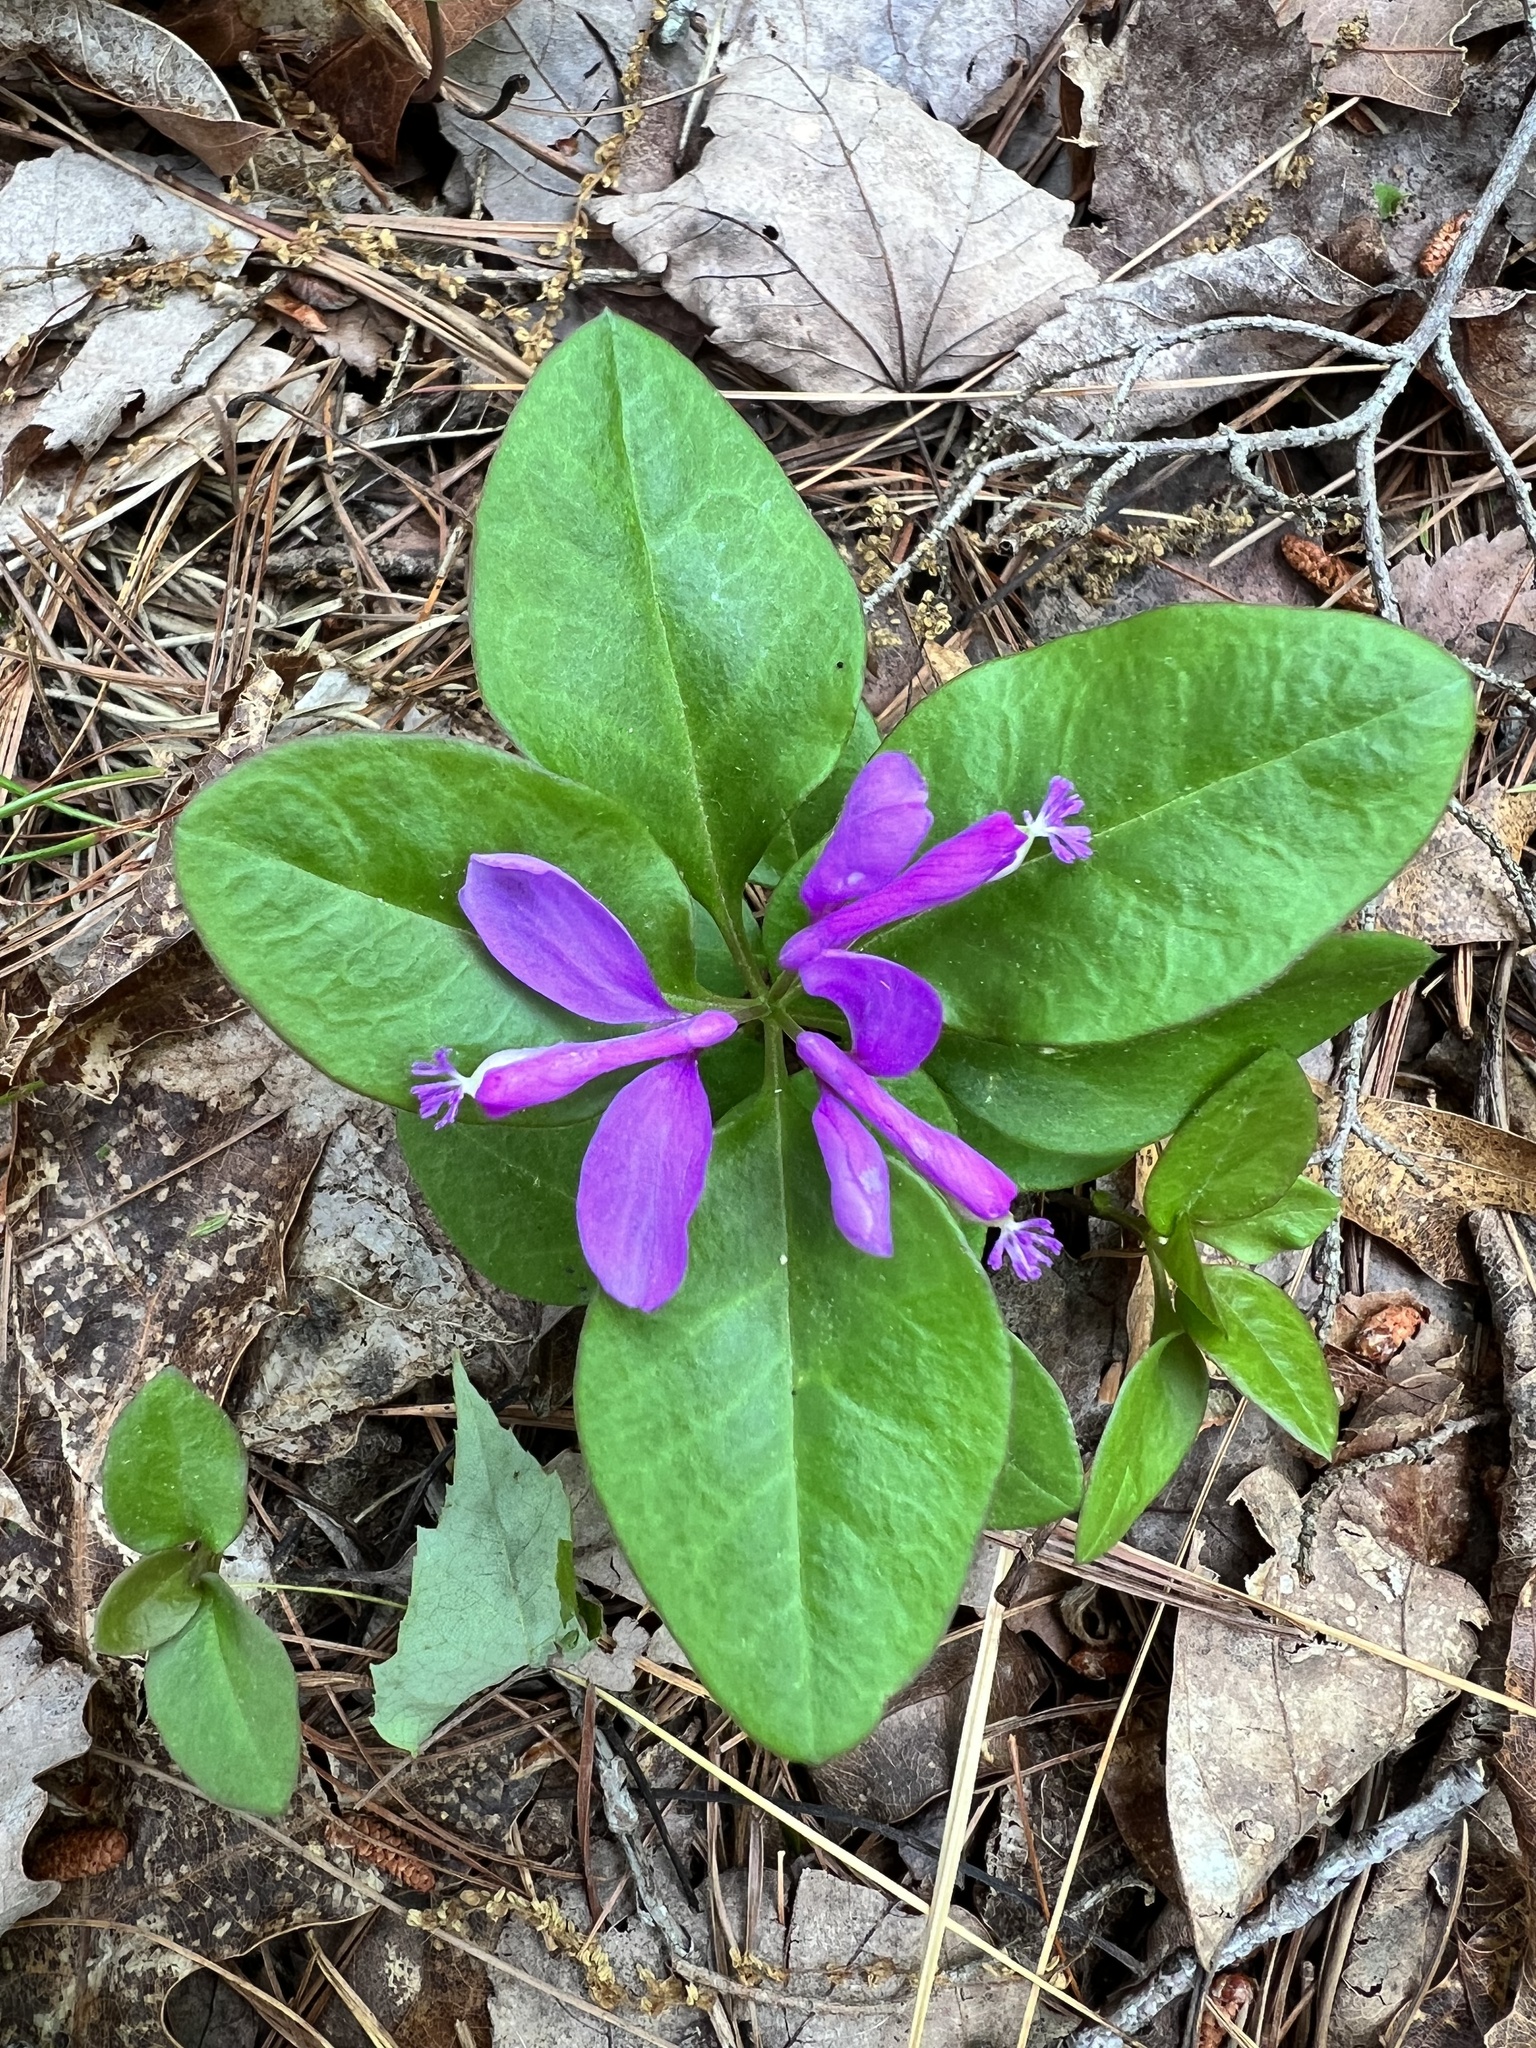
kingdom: Plantae
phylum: Tracheophyta
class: Magnoliopsida
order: Fabales
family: Polygalaceae
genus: Polygaloides
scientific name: Polygaloides paucifolia
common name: Bird-on-the-wing
